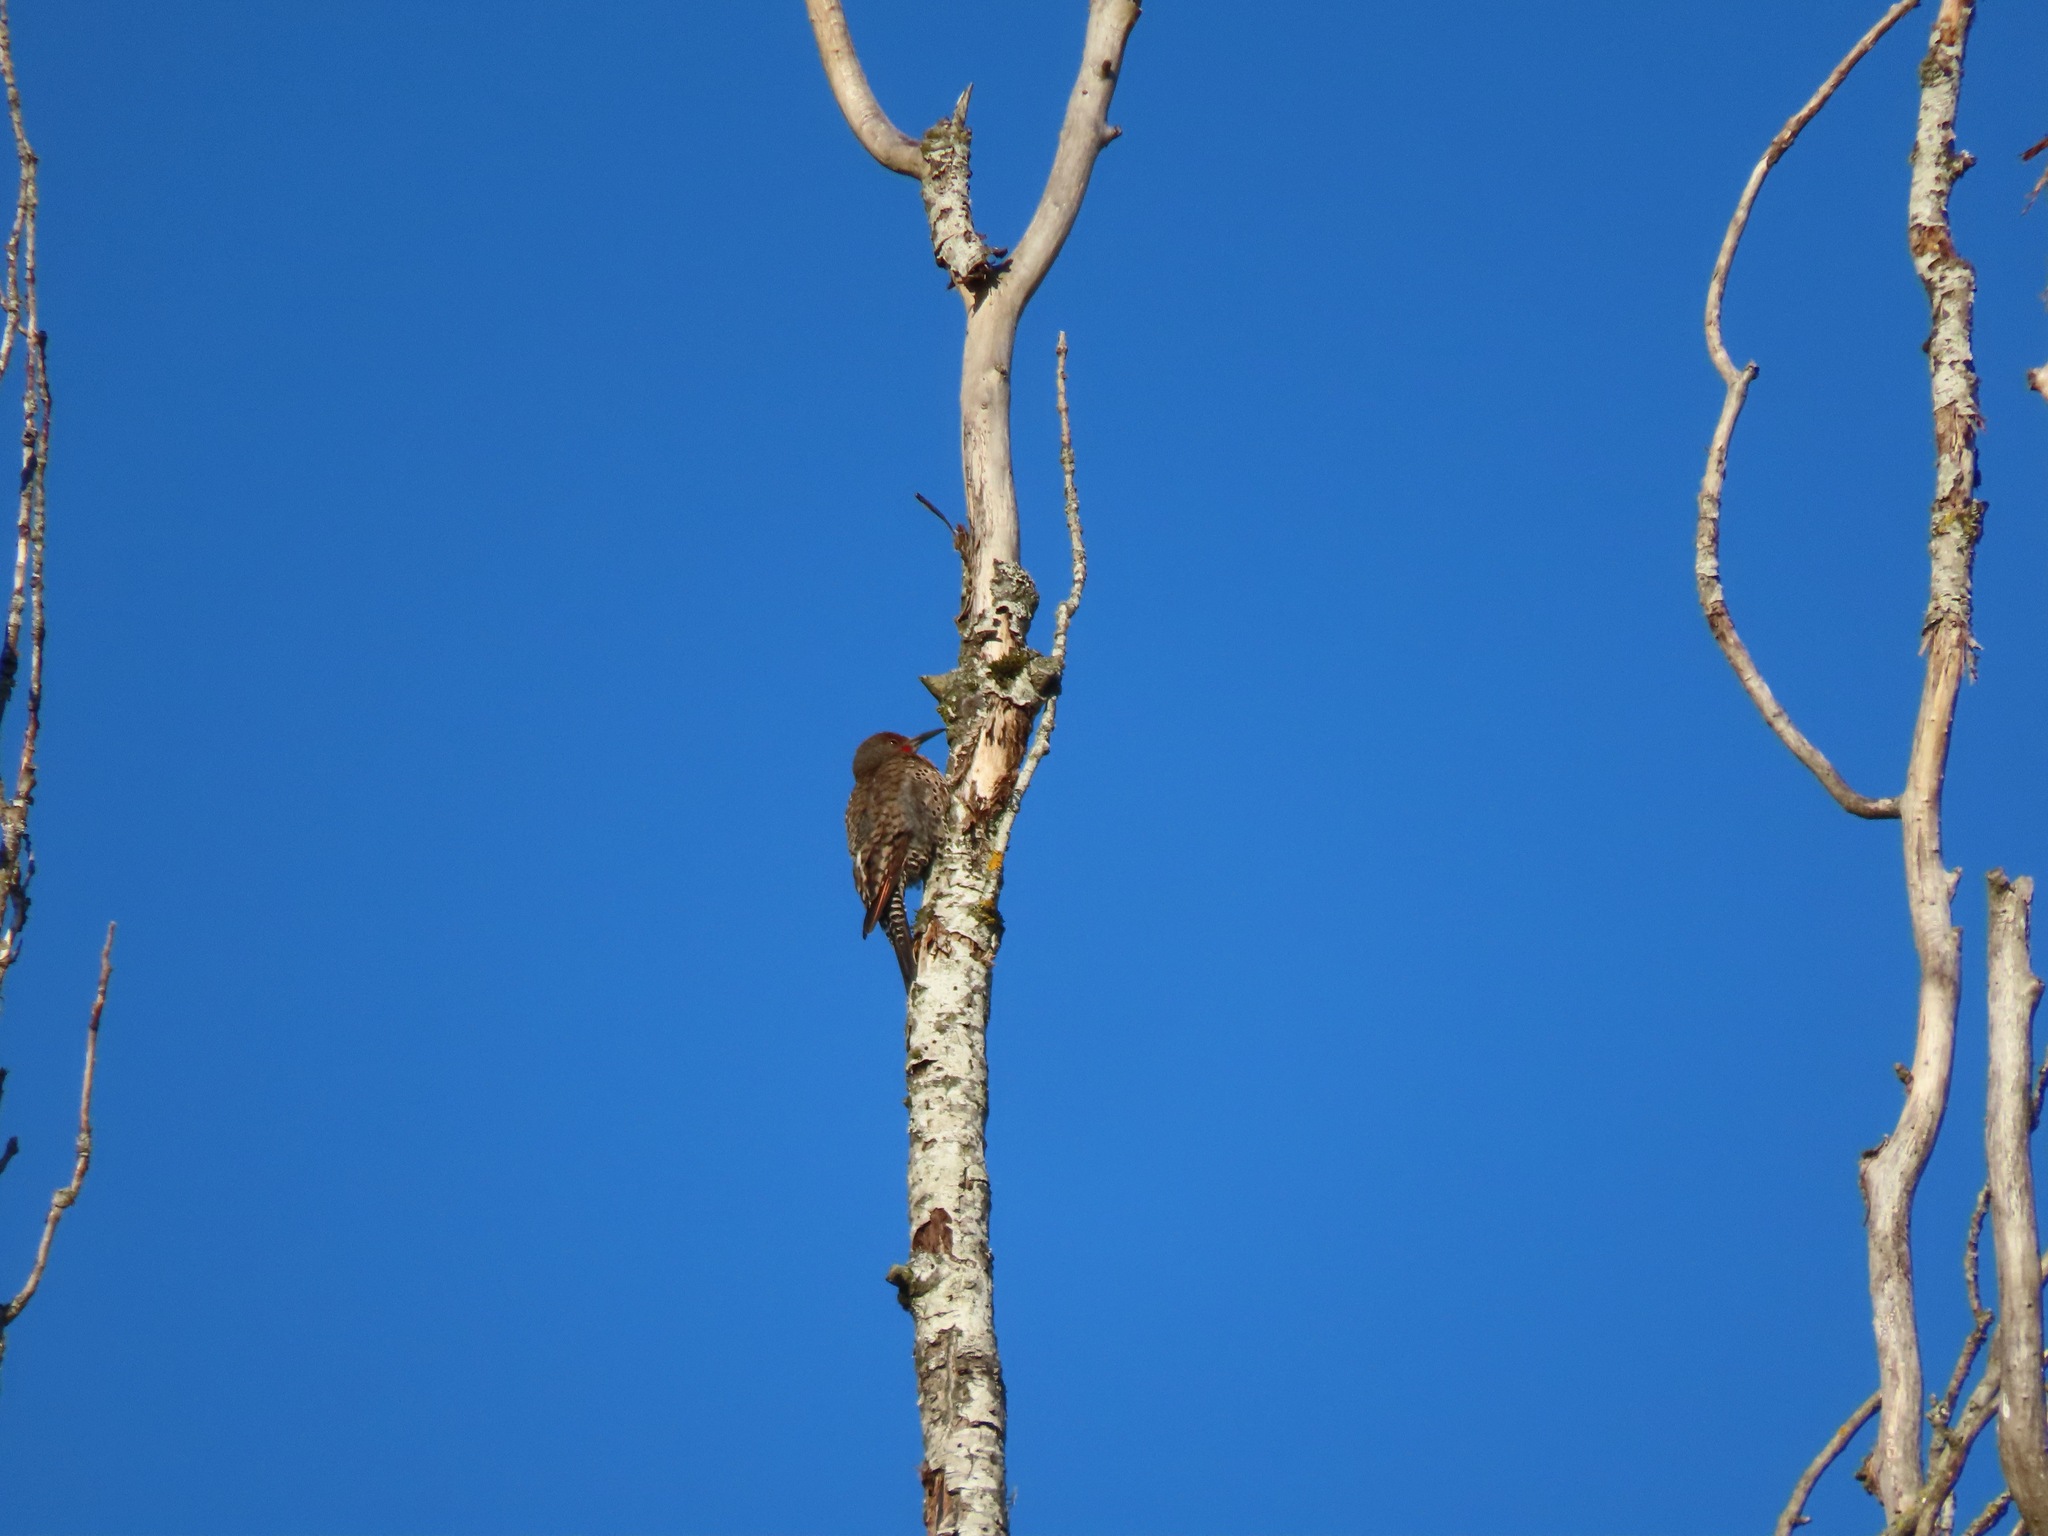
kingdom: Animalia
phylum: Chordata
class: Aves
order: Piciformes
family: Picidae
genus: Colaptes
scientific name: Colaptes auratus
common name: Northern flicker
